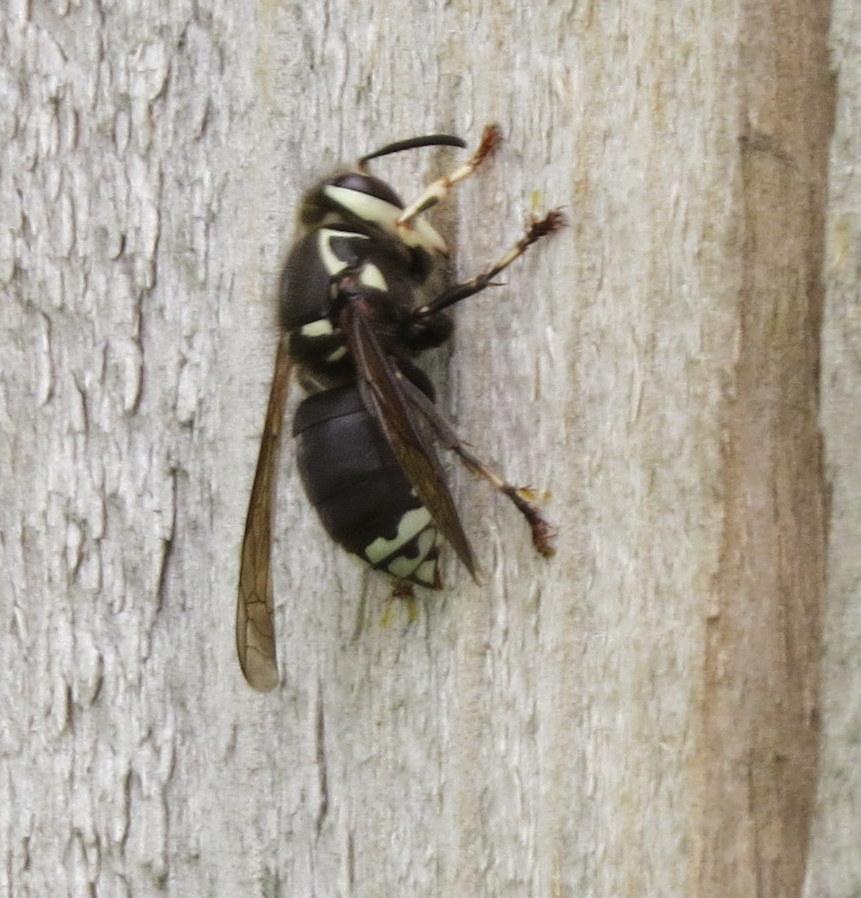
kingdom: Animalia
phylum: Arthropoda
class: Insecta
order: Hymenoptera
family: Vespidae
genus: Dolichovespula
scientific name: Dolichovespula maculata
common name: Bald-faced hornet
